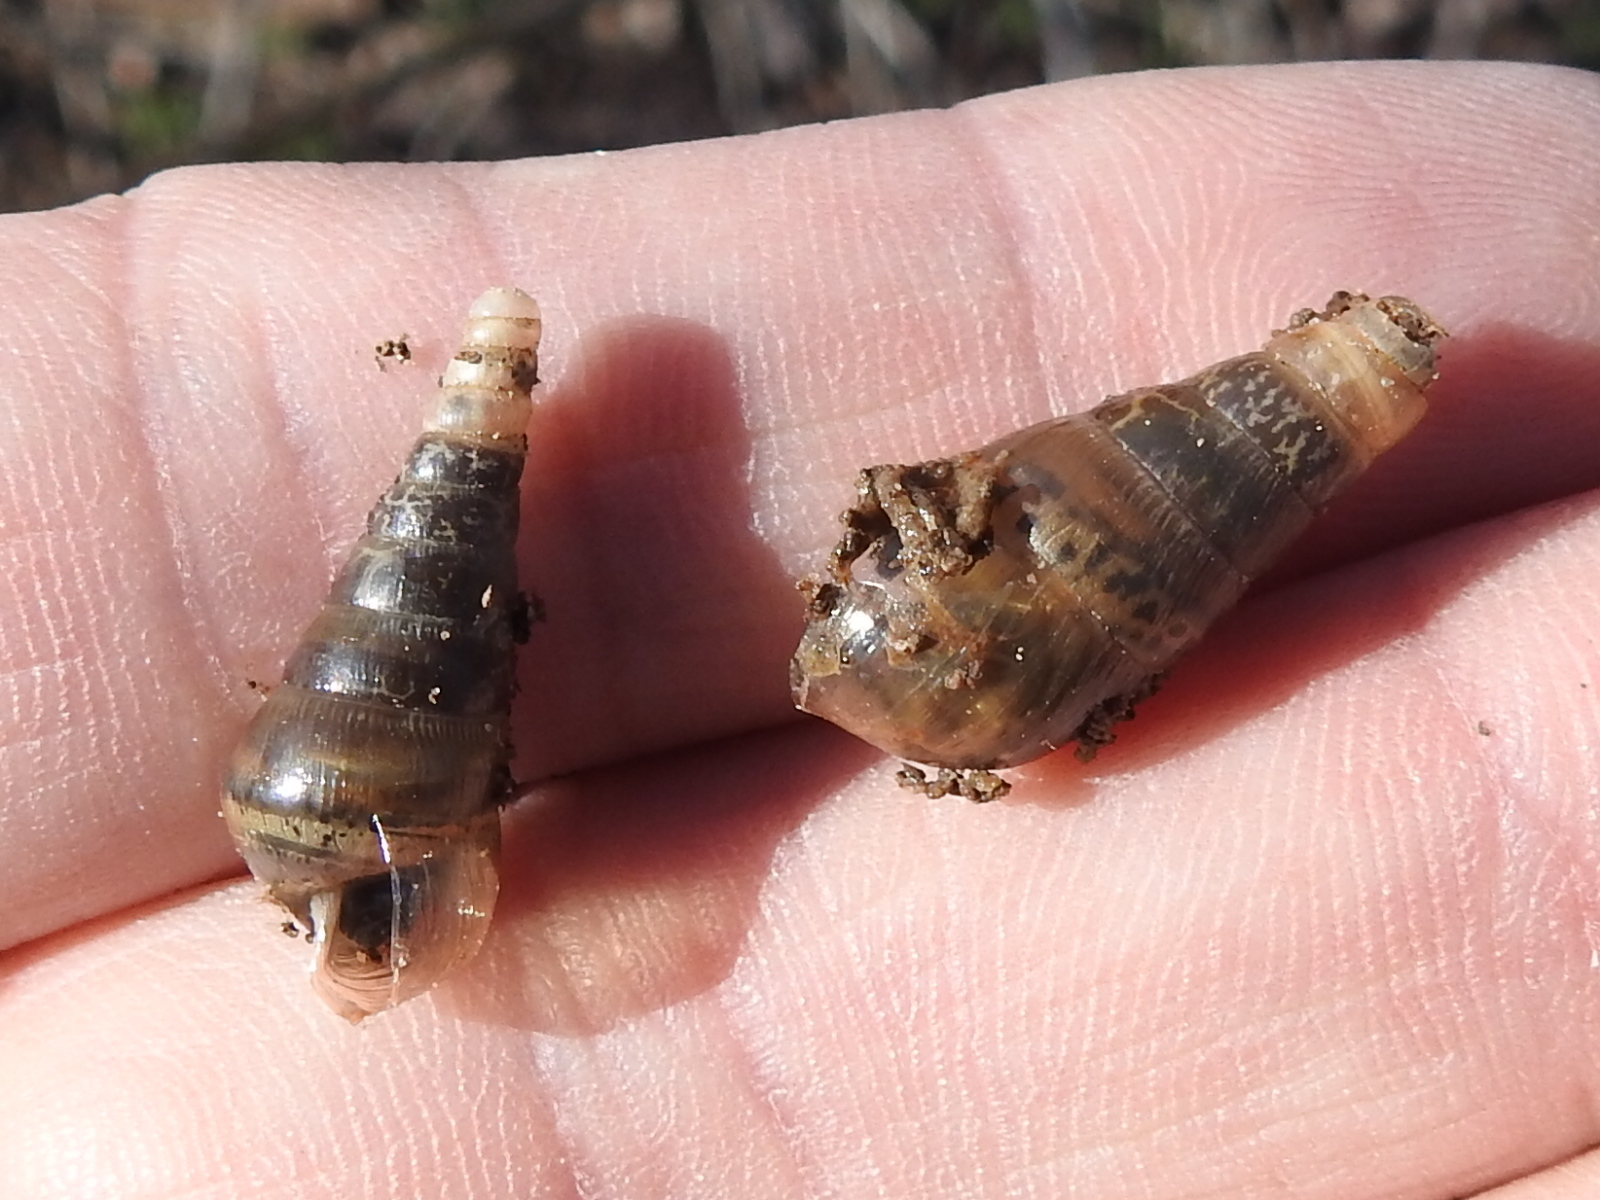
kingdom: Animalia
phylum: Mollusca
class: Gastropoda
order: Stylommatophora
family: Achatinidae
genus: Rumina
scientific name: Rumina decollata
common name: Decollate snail
